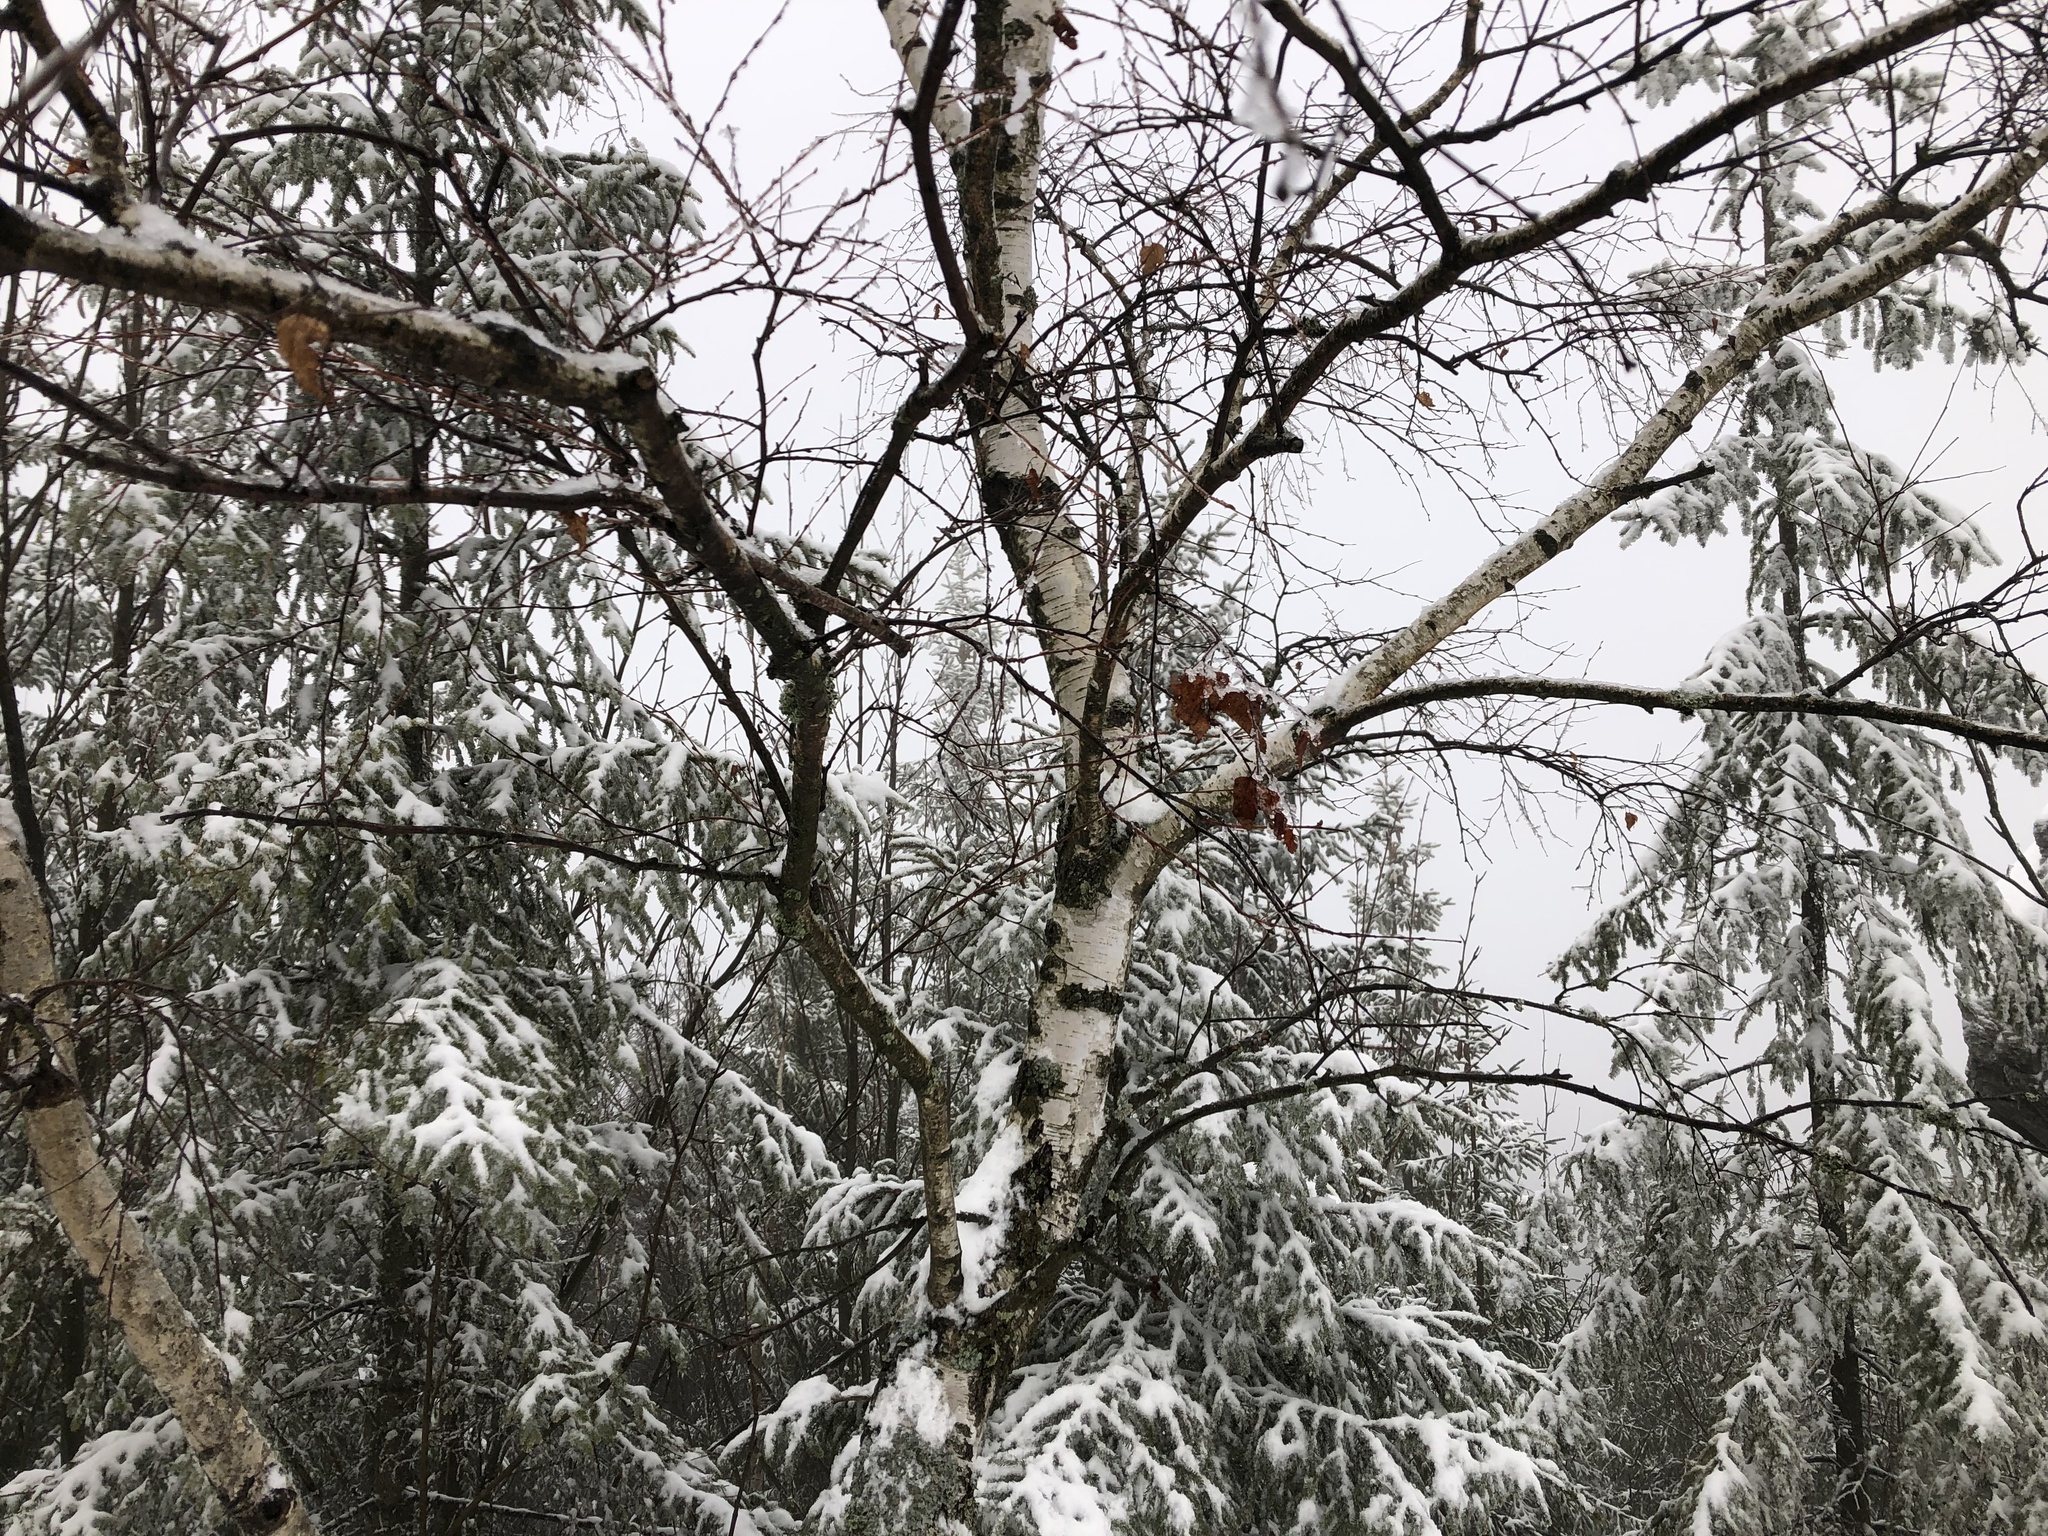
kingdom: Plantae
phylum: Tracheophyta
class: Magnoliopsida
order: Fagales
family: Betulaceae
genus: Betula
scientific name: Betula pendula
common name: Silver birch
